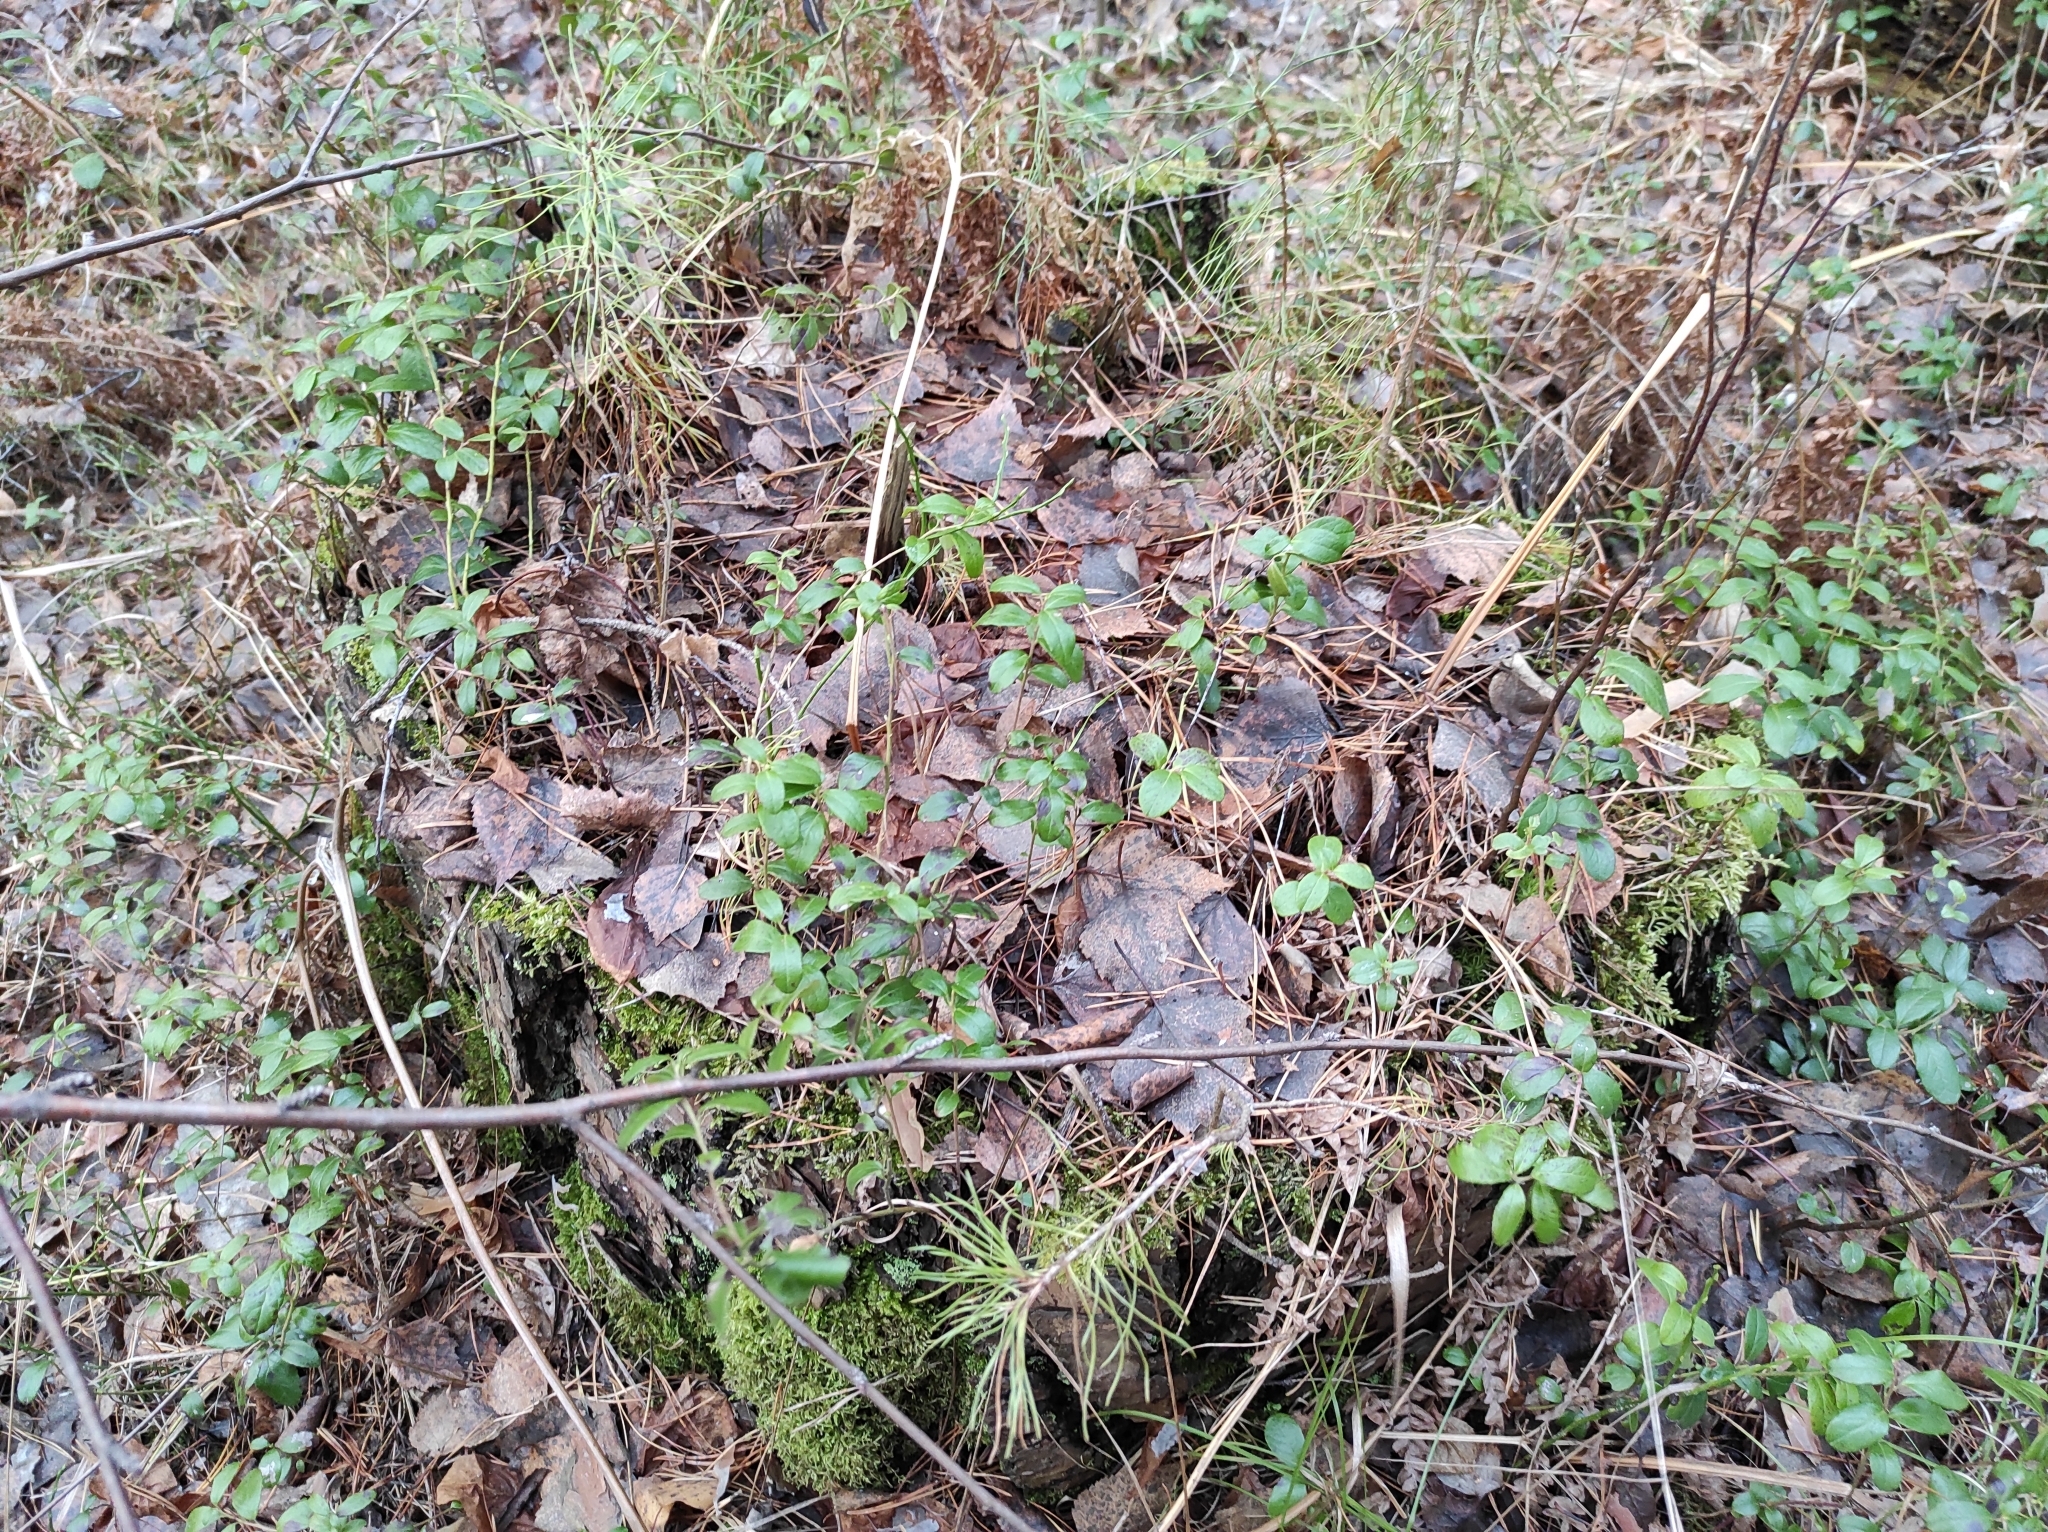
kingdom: Plantae
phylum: Tracheophyta
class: Magnoliopsida
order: Ericales
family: Ericaceae
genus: Vaccinium
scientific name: Vaccinium vitis-idaea
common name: Cowberry
